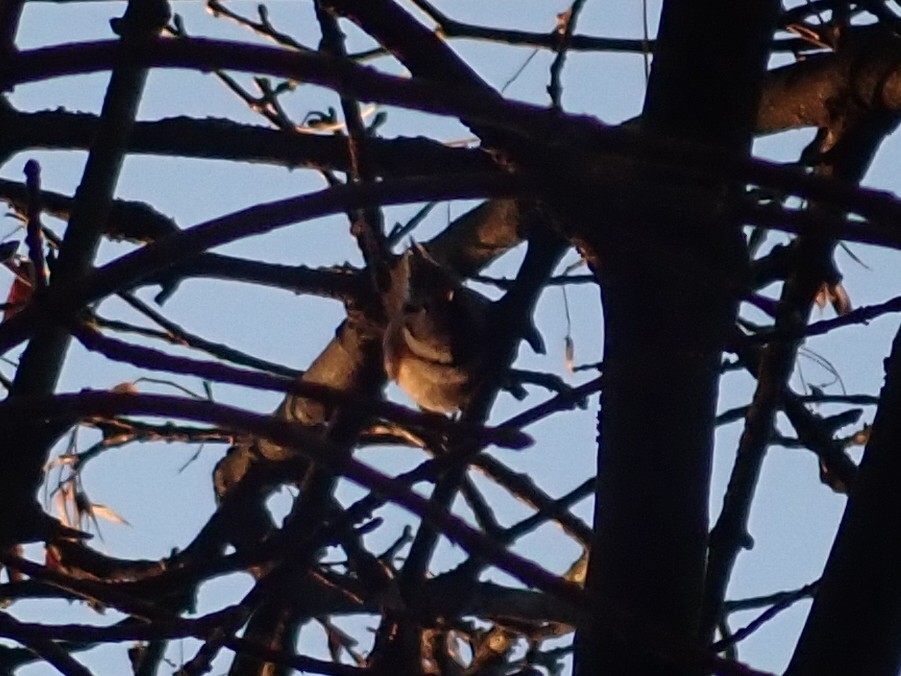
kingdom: Animalia
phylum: Chordata
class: Aves
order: Passeriformes
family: Paridae
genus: Lophophanes
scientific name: Lophophanes cristatus
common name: European crested tit
